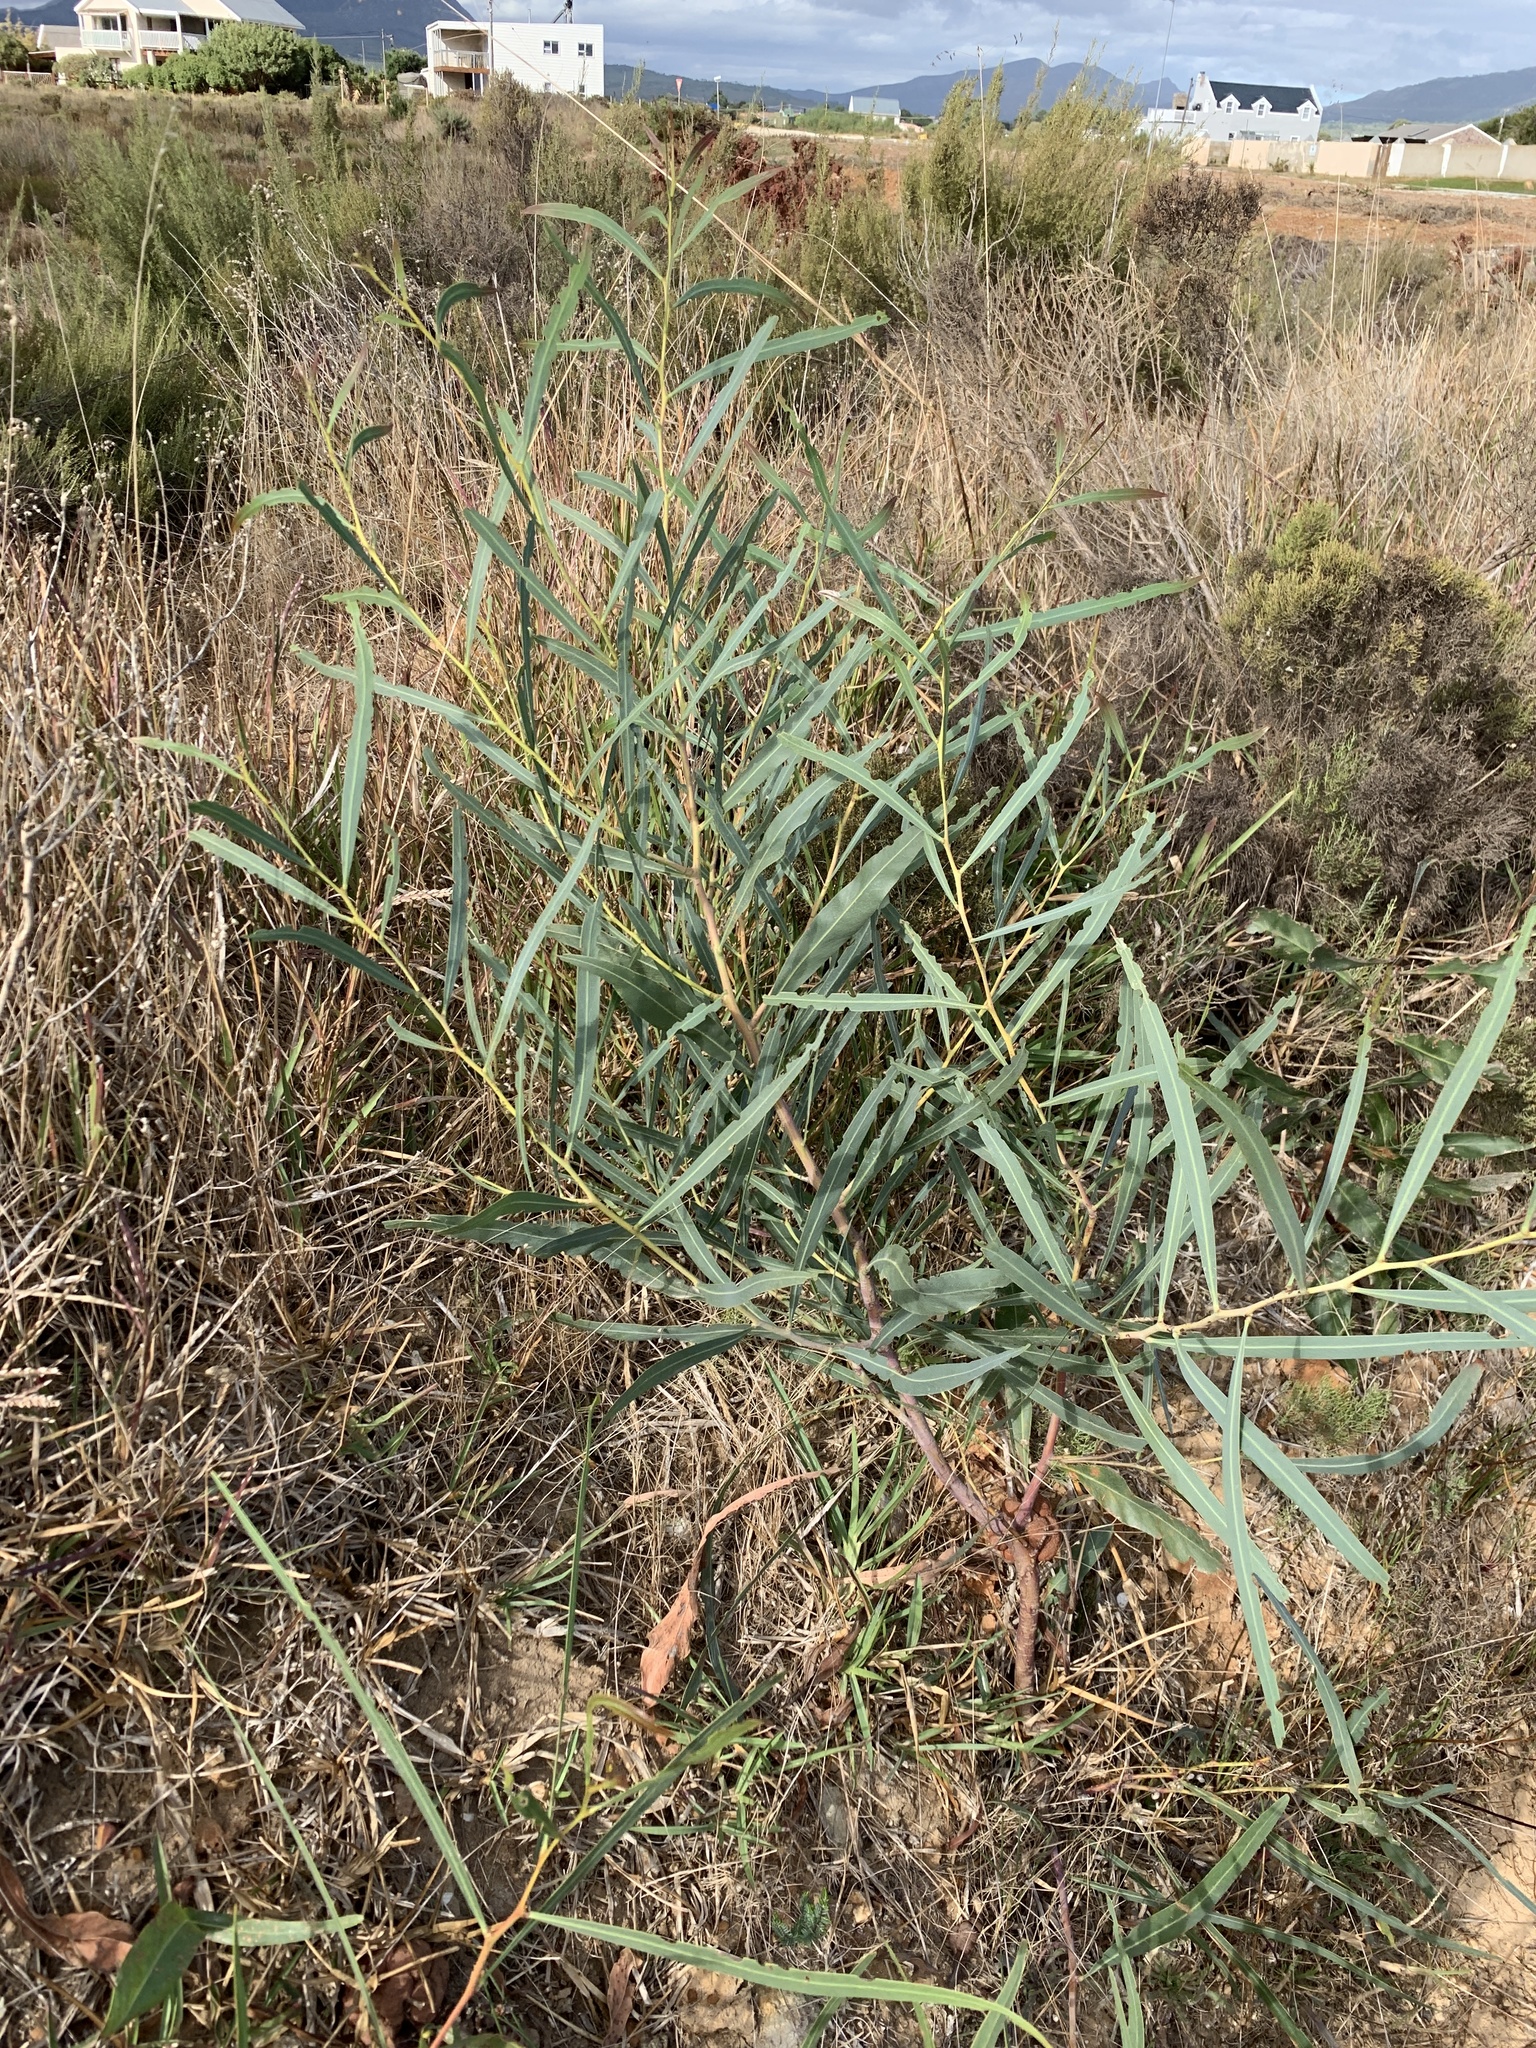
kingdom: Plantae
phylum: Tracheophyta
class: Magnoliopsida
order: Fabales
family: Fabaceae
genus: Acacia
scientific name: Acacia saligna
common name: Orange wattle
